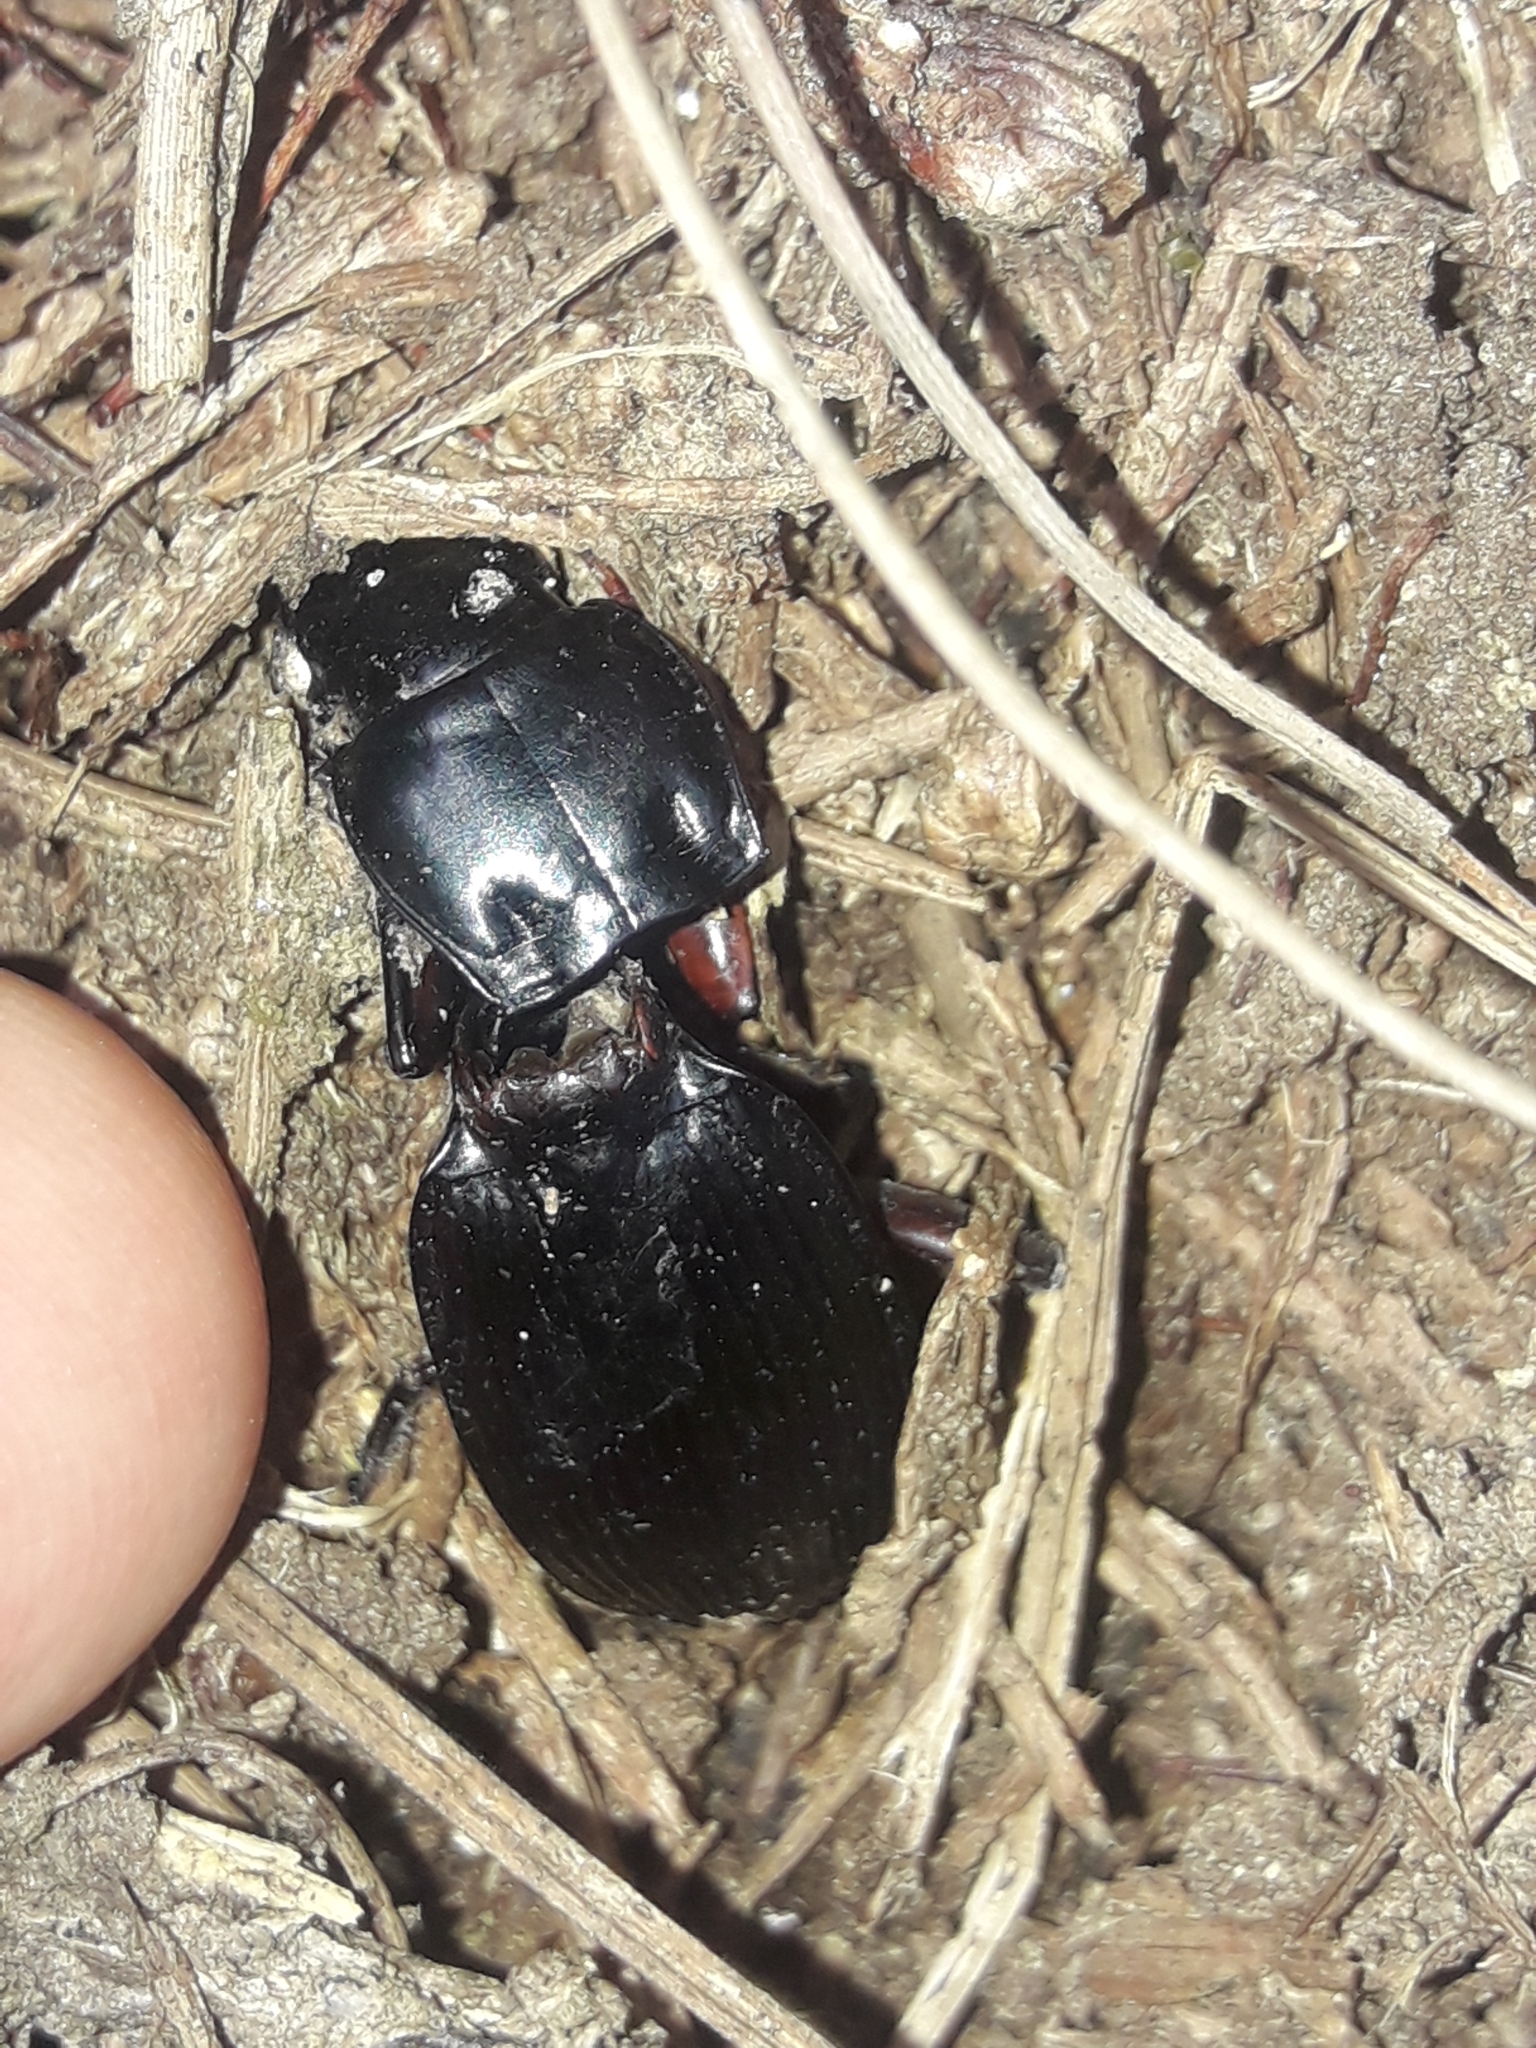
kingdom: Animalia
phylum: Arthropoda
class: Insecta
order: Coleoptera
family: Carabidae
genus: Plocamostethus
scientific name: Plocamostethus planiusculus
